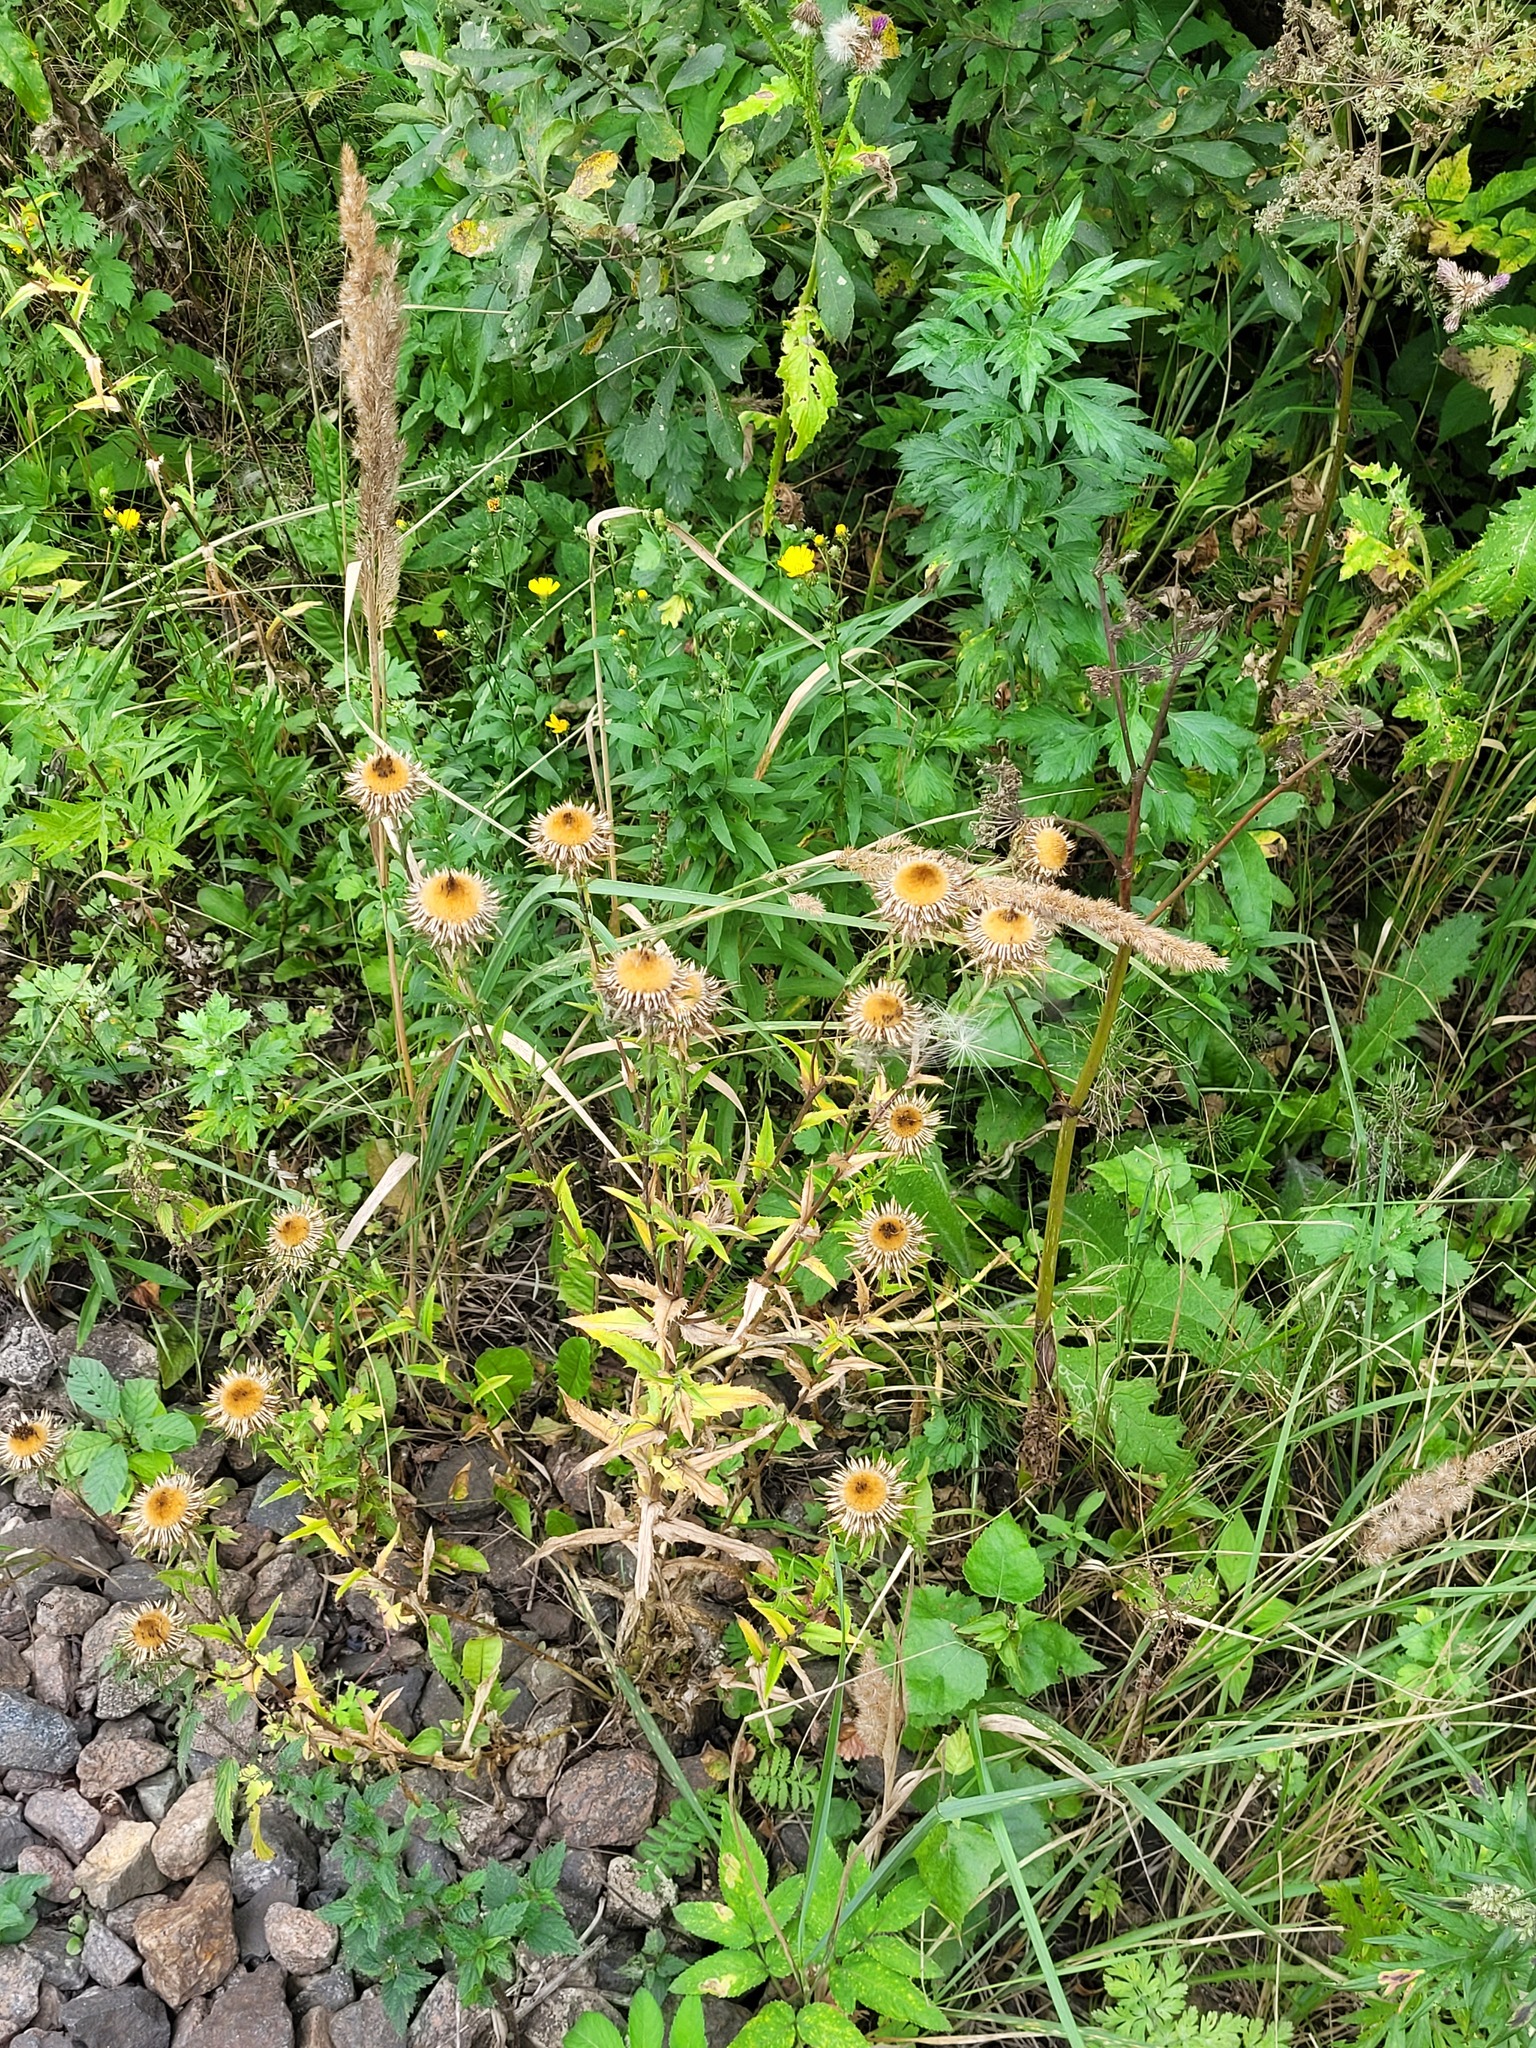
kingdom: Plantae
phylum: Tracheophyta
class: Magnoliopsida
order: Asterales
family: Asteraceae
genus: Carlina
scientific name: Carlina biebersteinii
